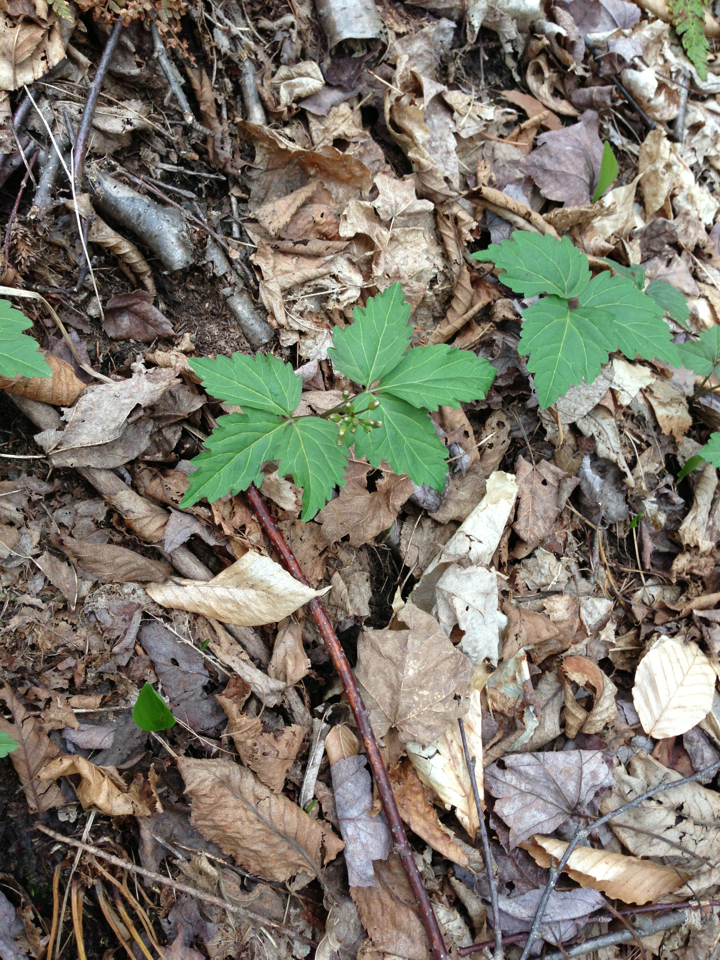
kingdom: Plantae
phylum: Tracheophyta
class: Magnoliopsida
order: Brassicales
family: Brassicaceae
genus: Cardamine
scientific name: Cardamine diphylla
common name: Broad-leaved toothwort
